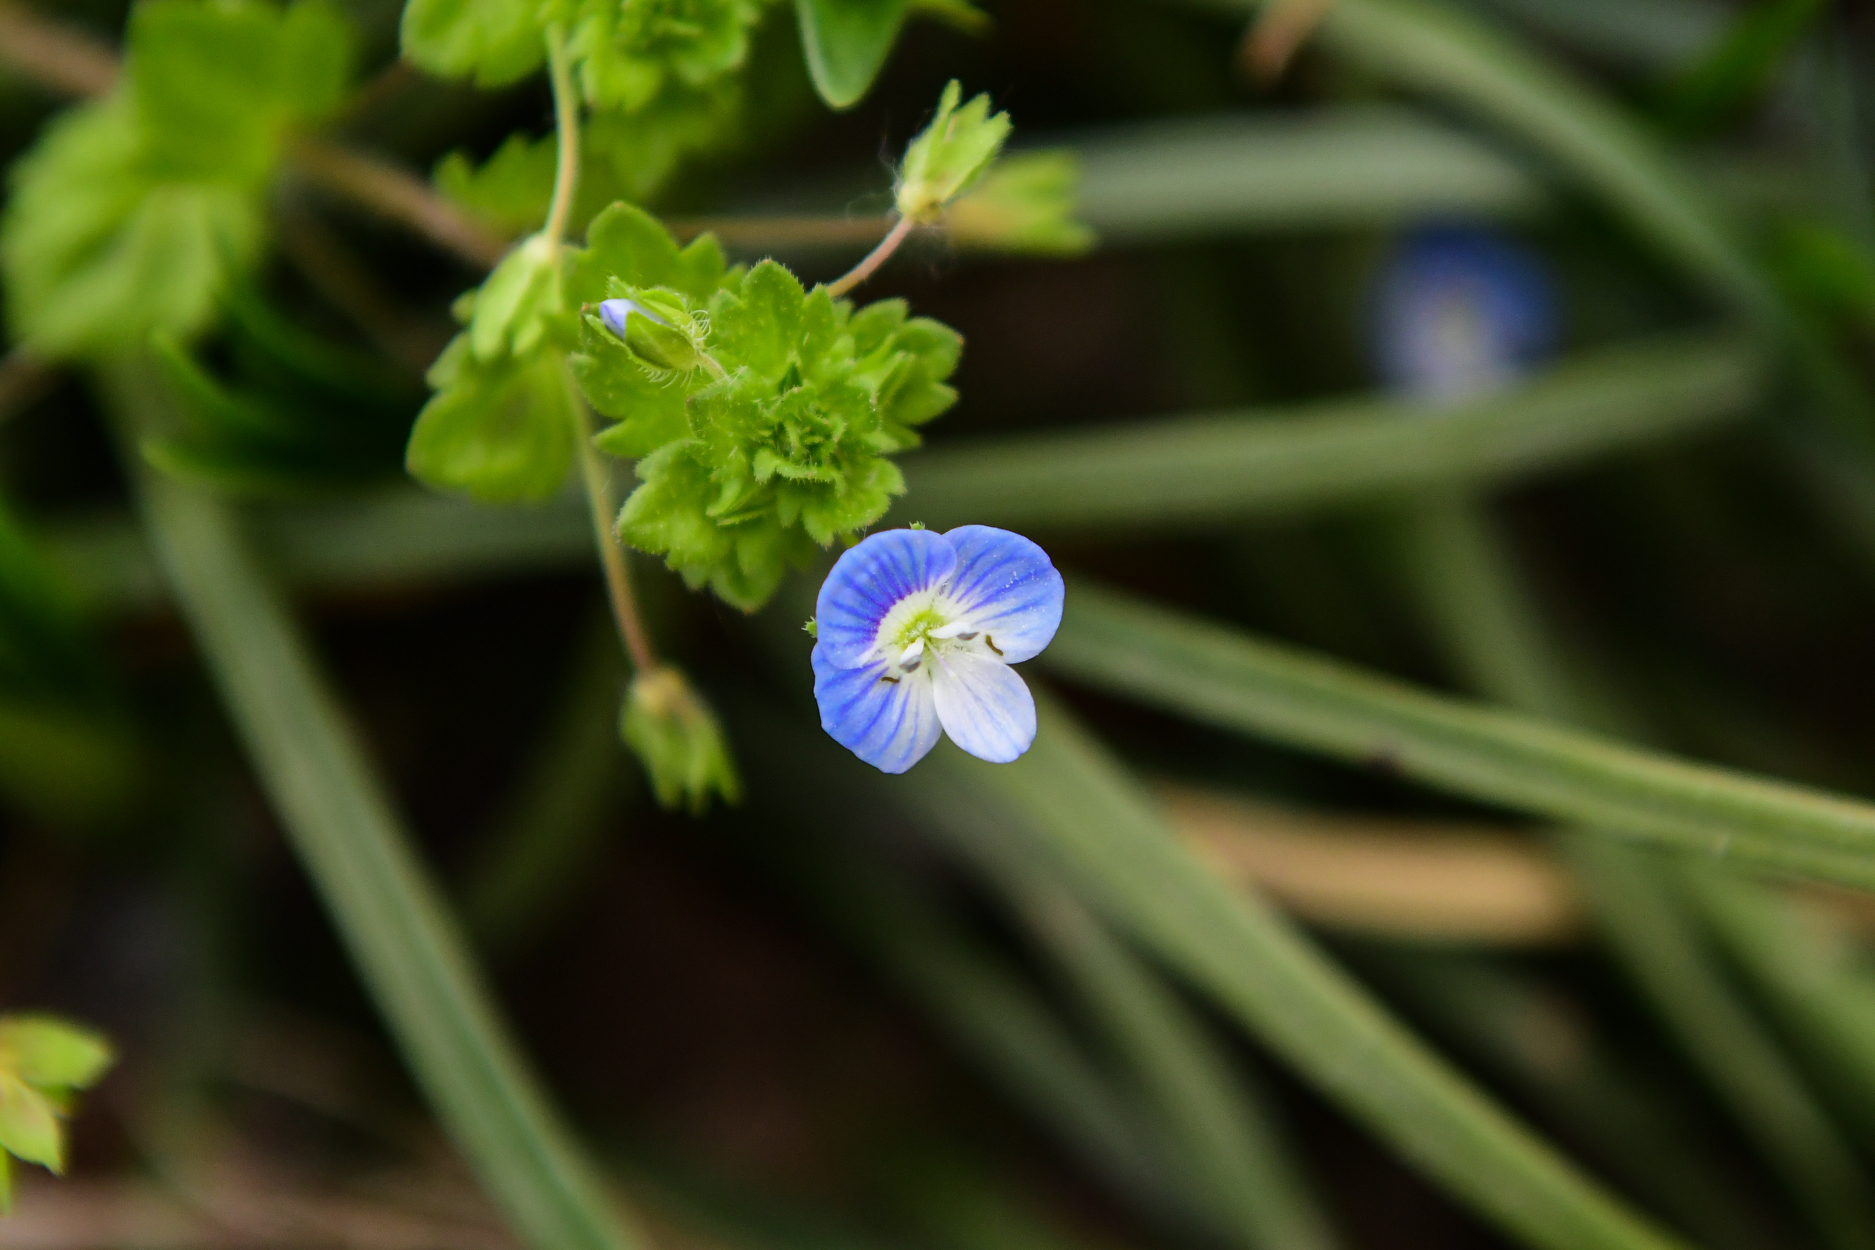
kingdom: Plantae
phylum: Tracheophyta
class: Magnoliopsida
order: Lamiales
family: Plantaginaceae
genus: Veronica
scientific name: Veronica persica
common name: Common field-speedwell
